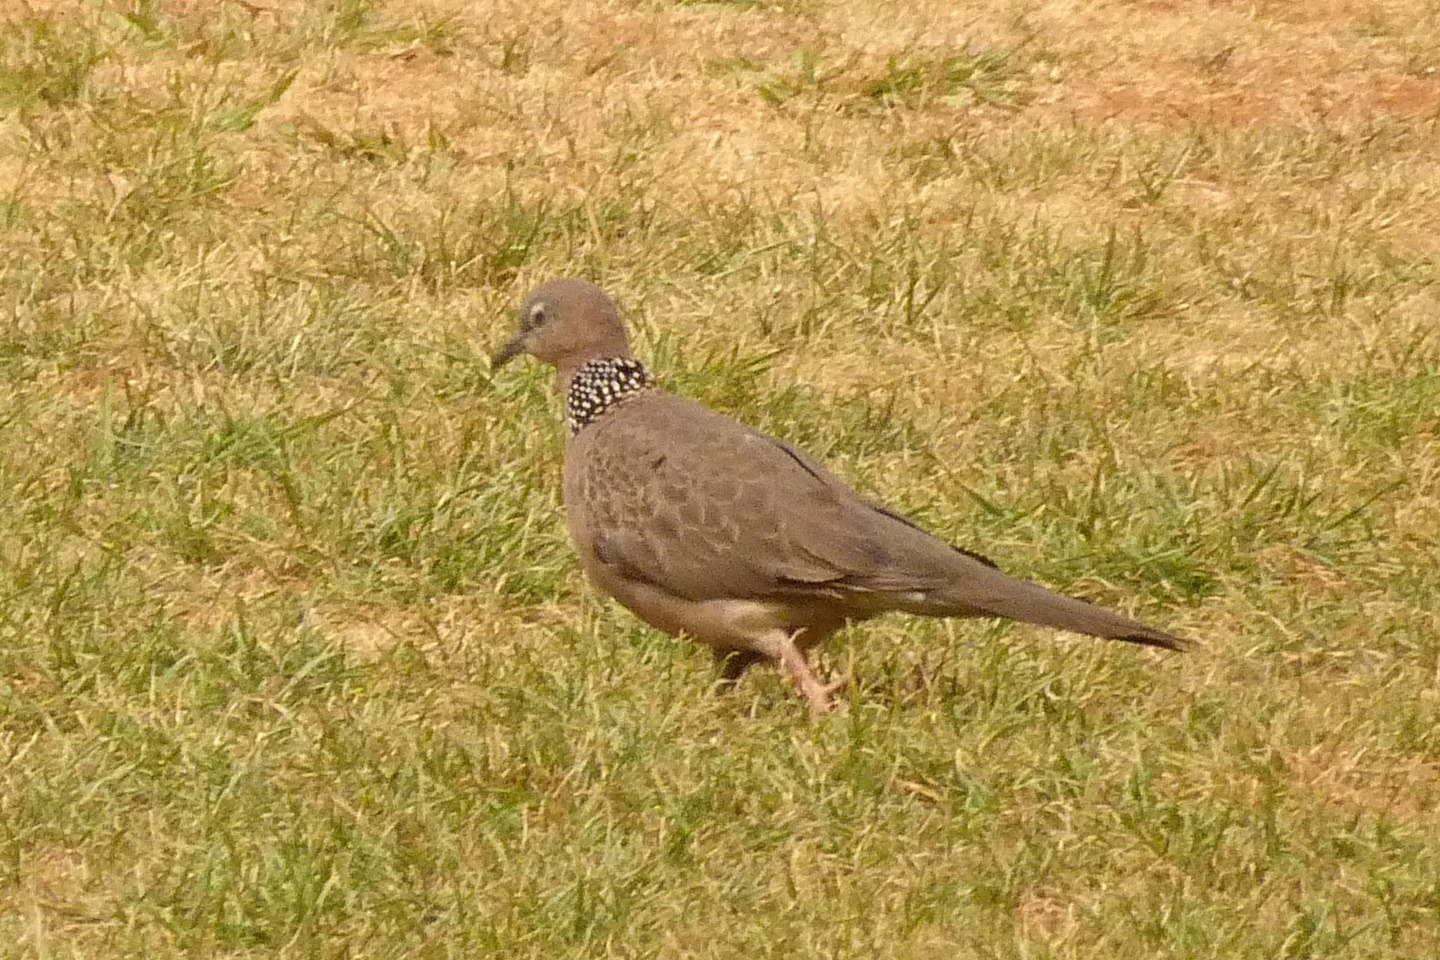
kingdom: Animalia
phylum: Chordata
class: Aves
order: Columbiformes
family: Columbidae
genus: Spilopelia
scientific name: Spilopelia chinensis
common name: Spotted dove
